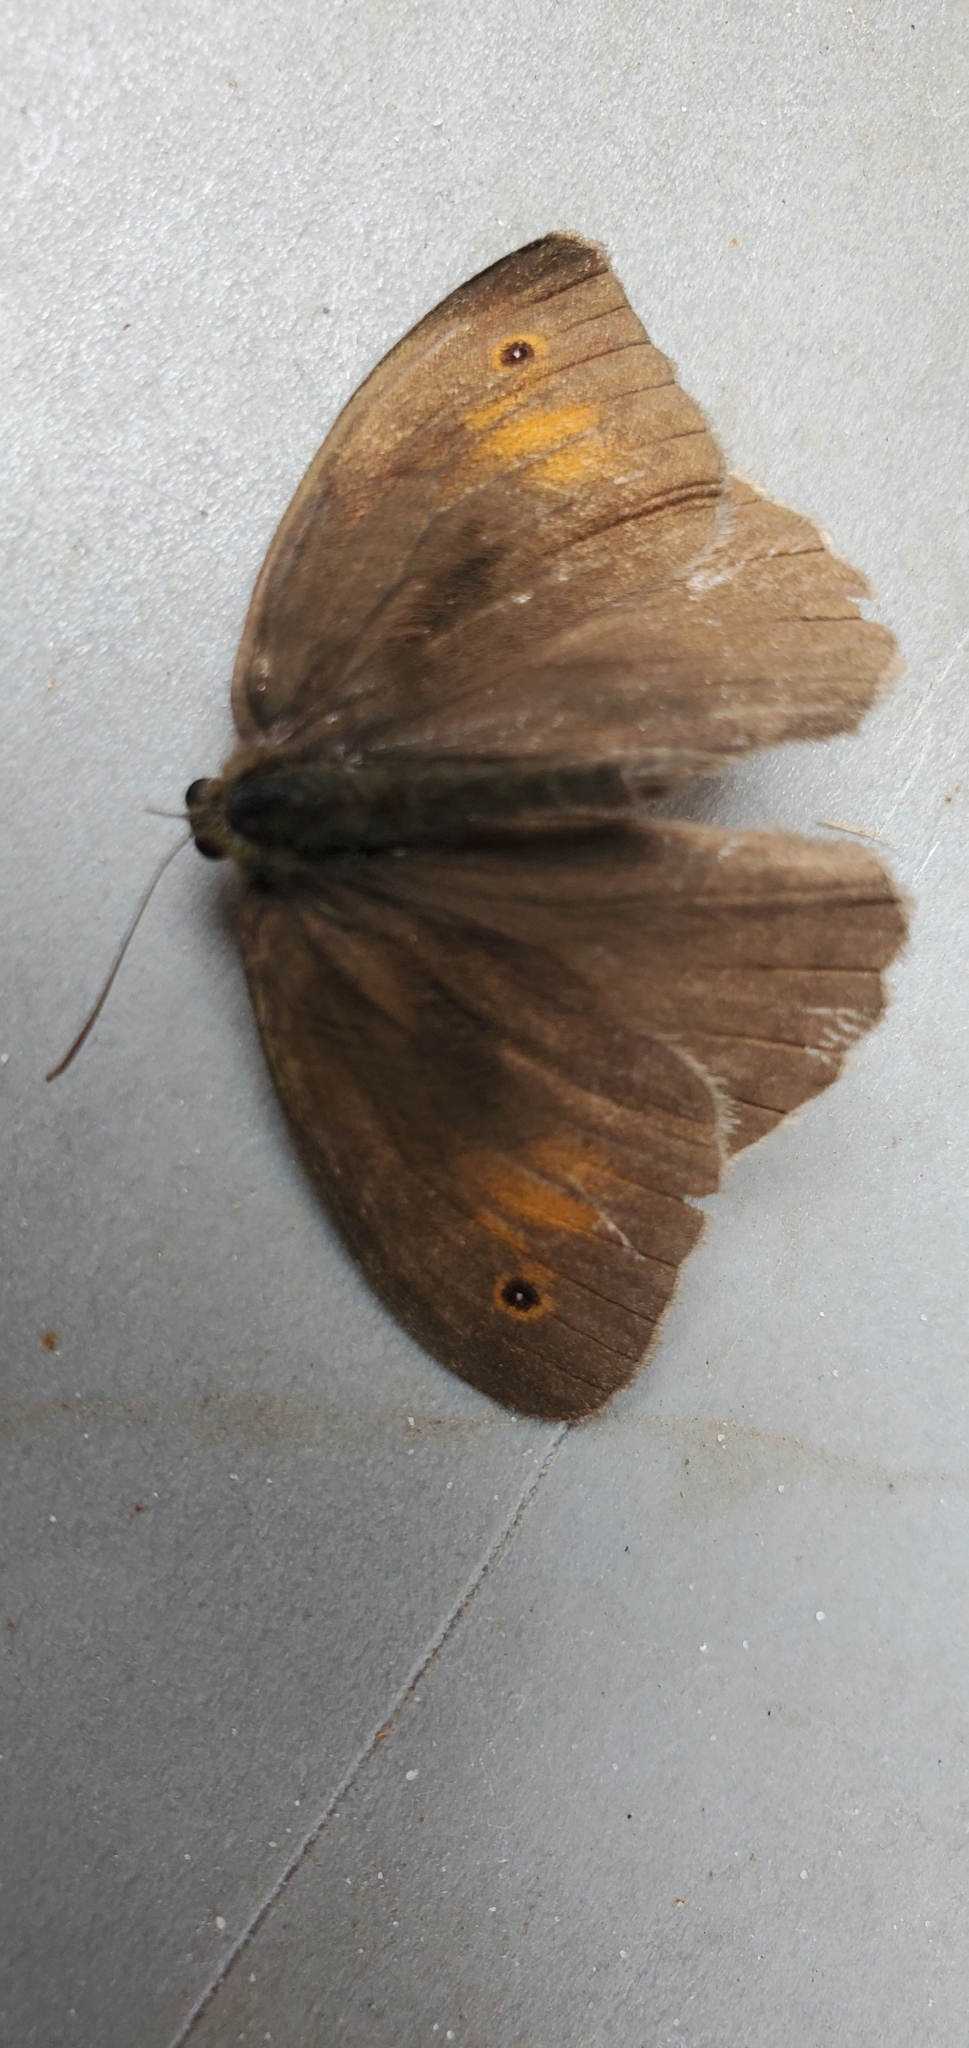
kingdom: Animalia
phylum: Arthropoda
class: Insecta
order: Lepidoptera
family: Nymphalidae
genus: Maniola
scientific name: Maniola jurtina
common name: Meadow brown
